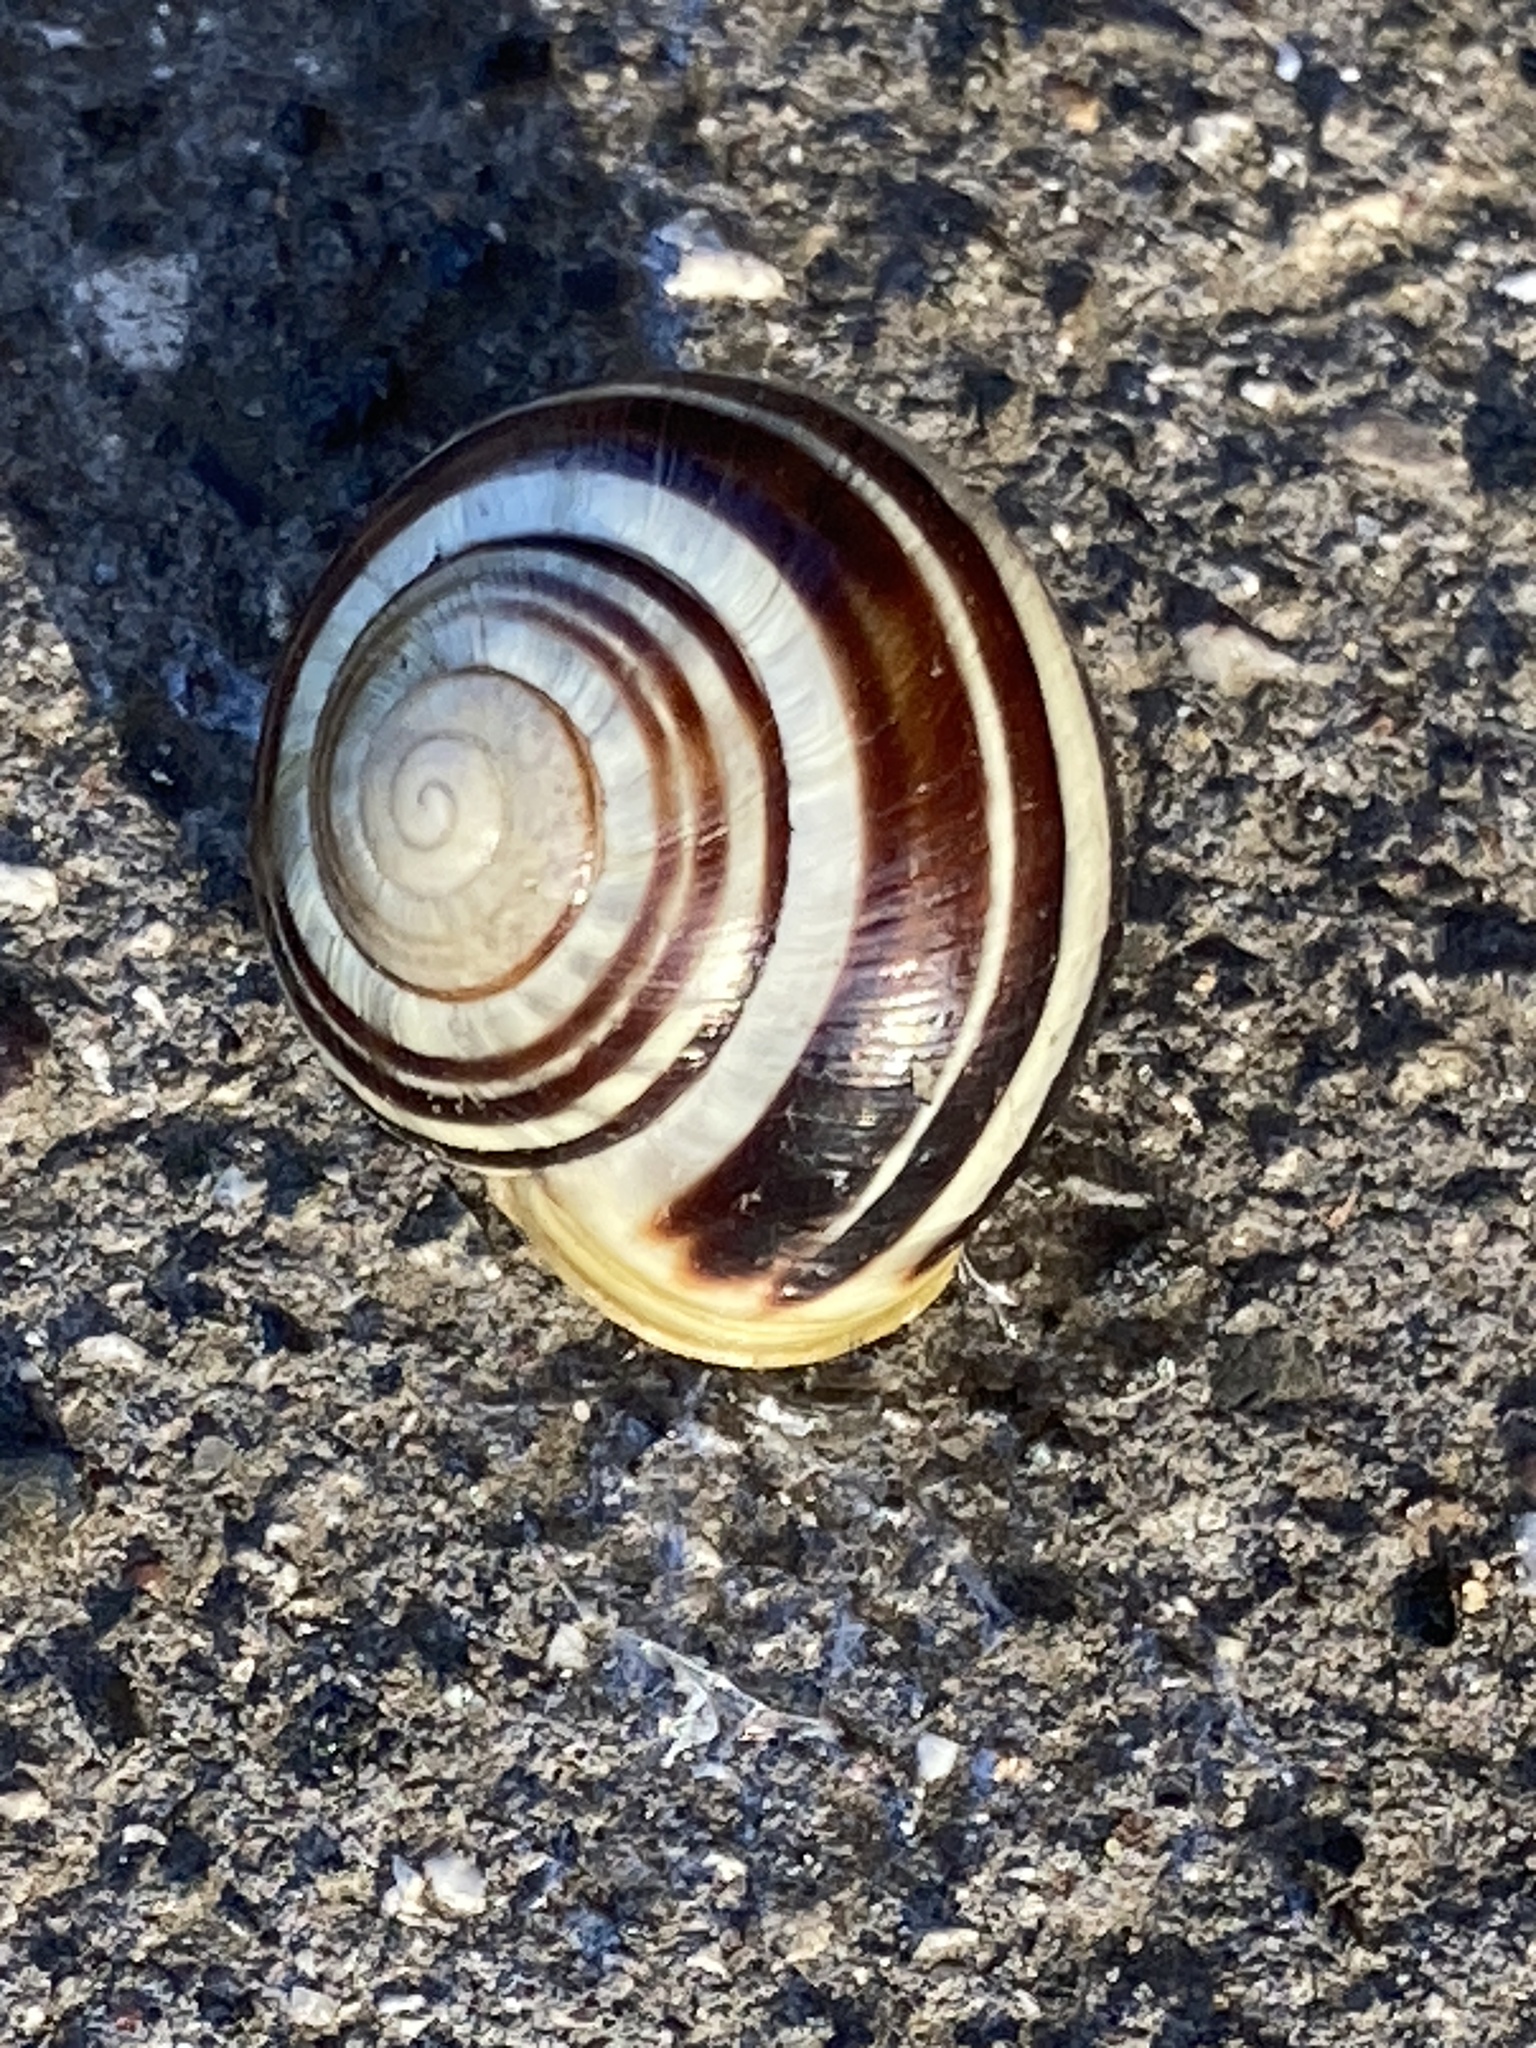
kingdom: Animalia
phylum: Mollusca
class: Gastropoda
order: Stylommatophora
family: Helicidae
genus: Cepaea
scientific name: Cepaea hortensis
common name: White-lip gardensnail
